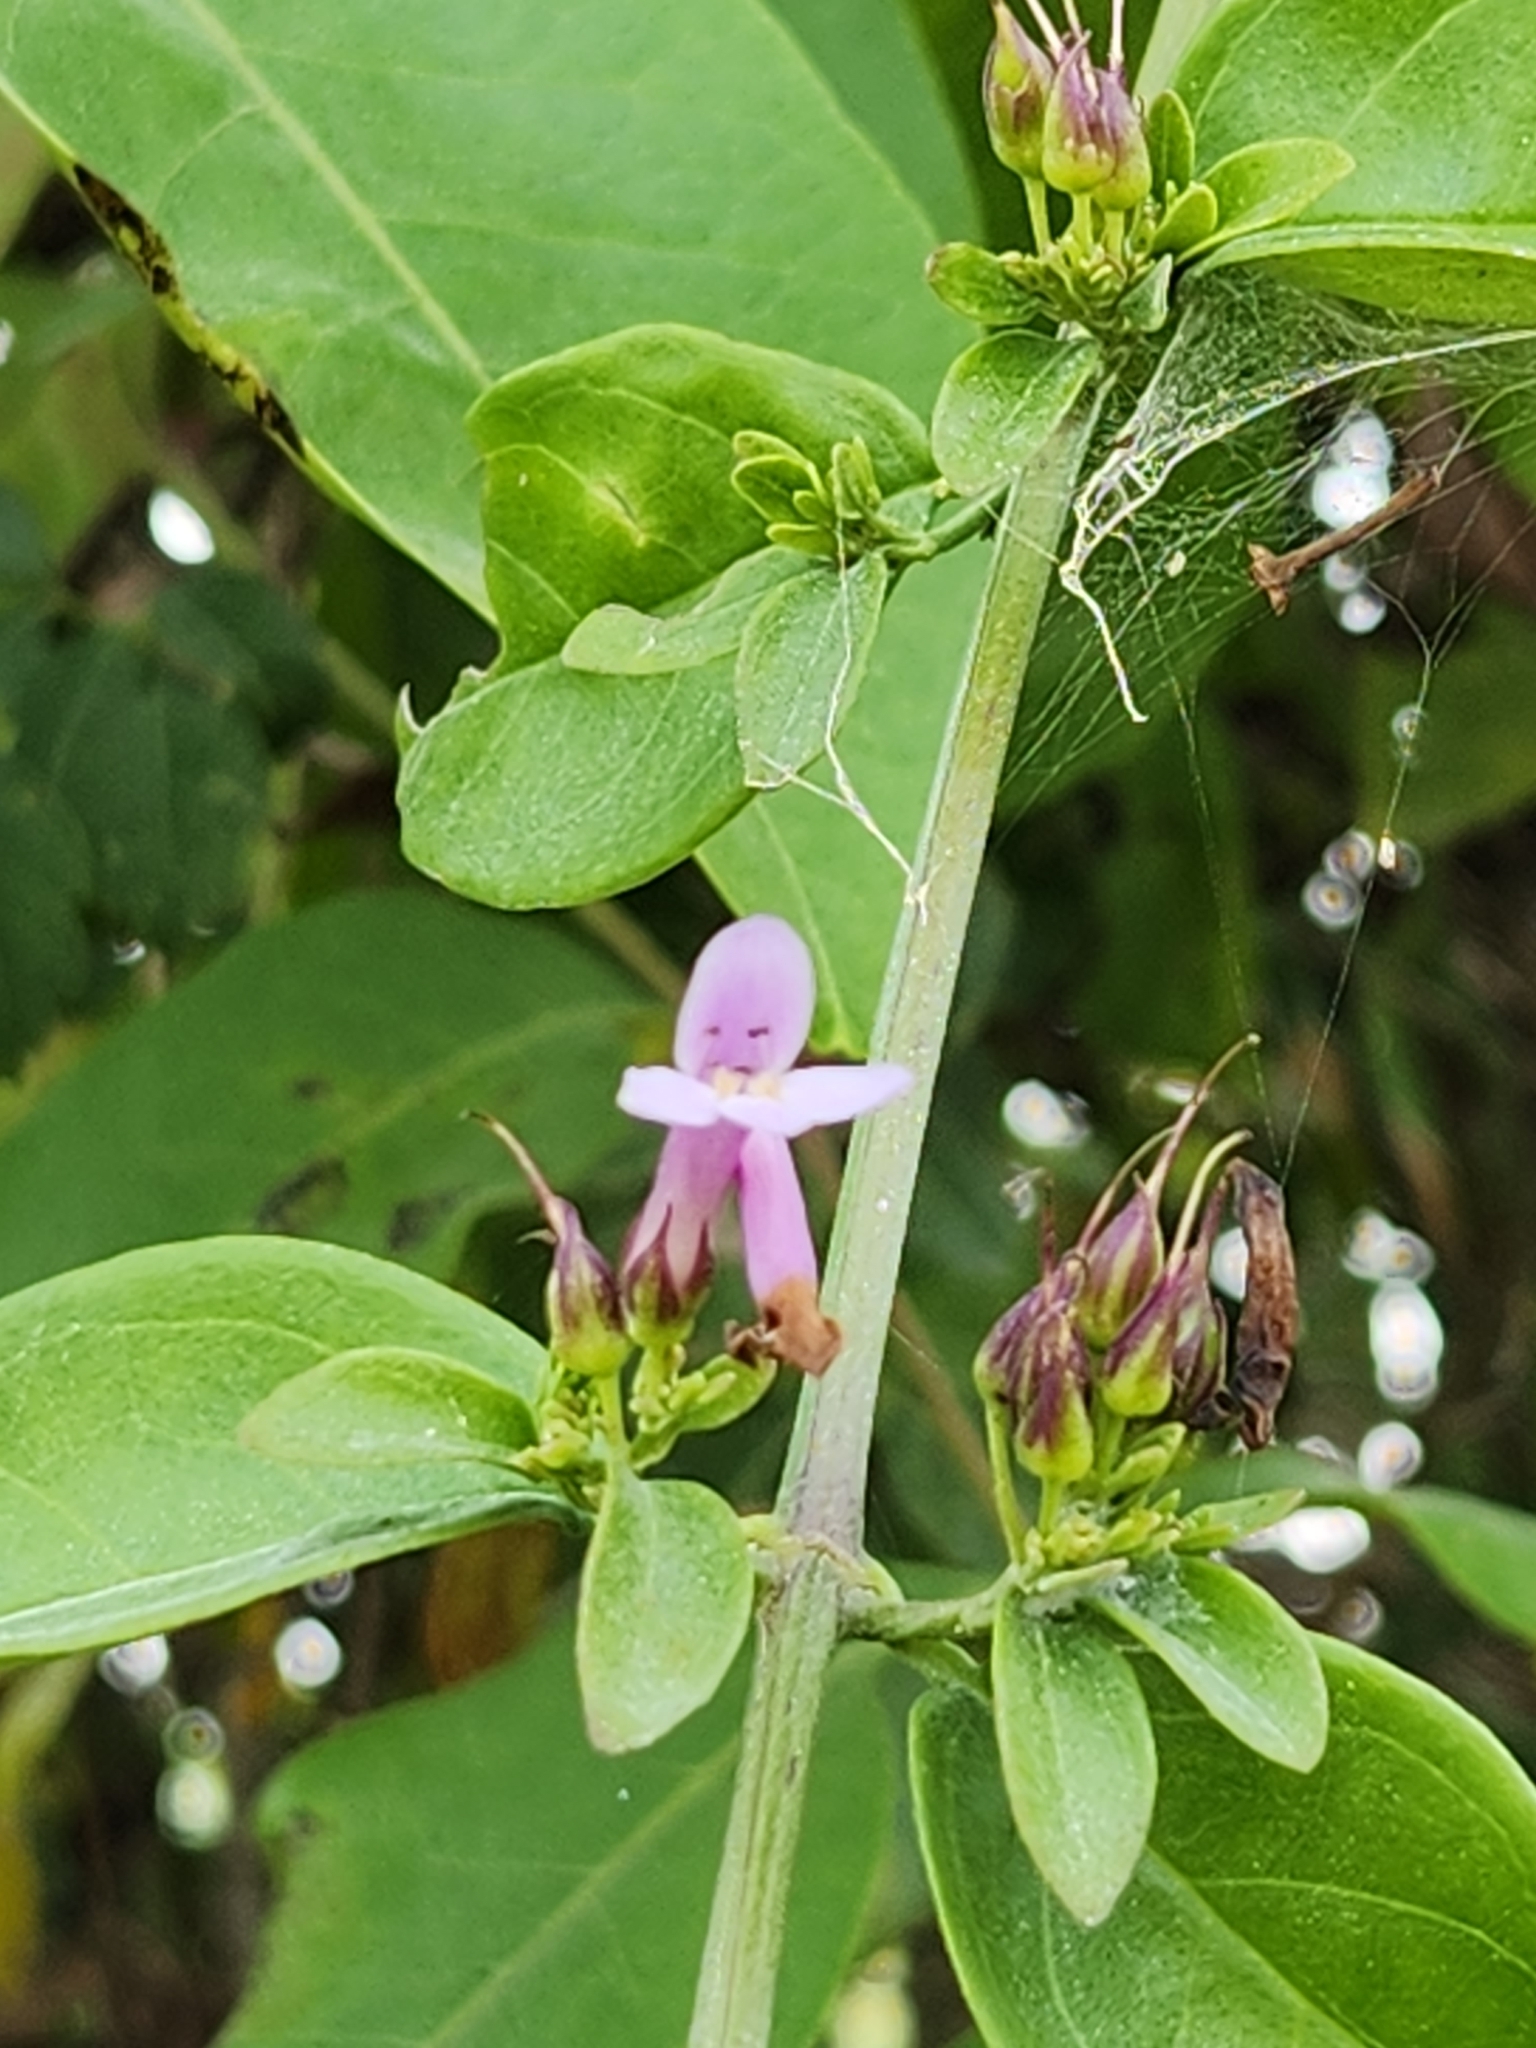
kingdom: Plantae
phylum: Tracheophyta
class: Magnoliopsida
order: Lamiales
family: Plantaginaceae
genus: Russelia
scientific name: Russelia campechiana
